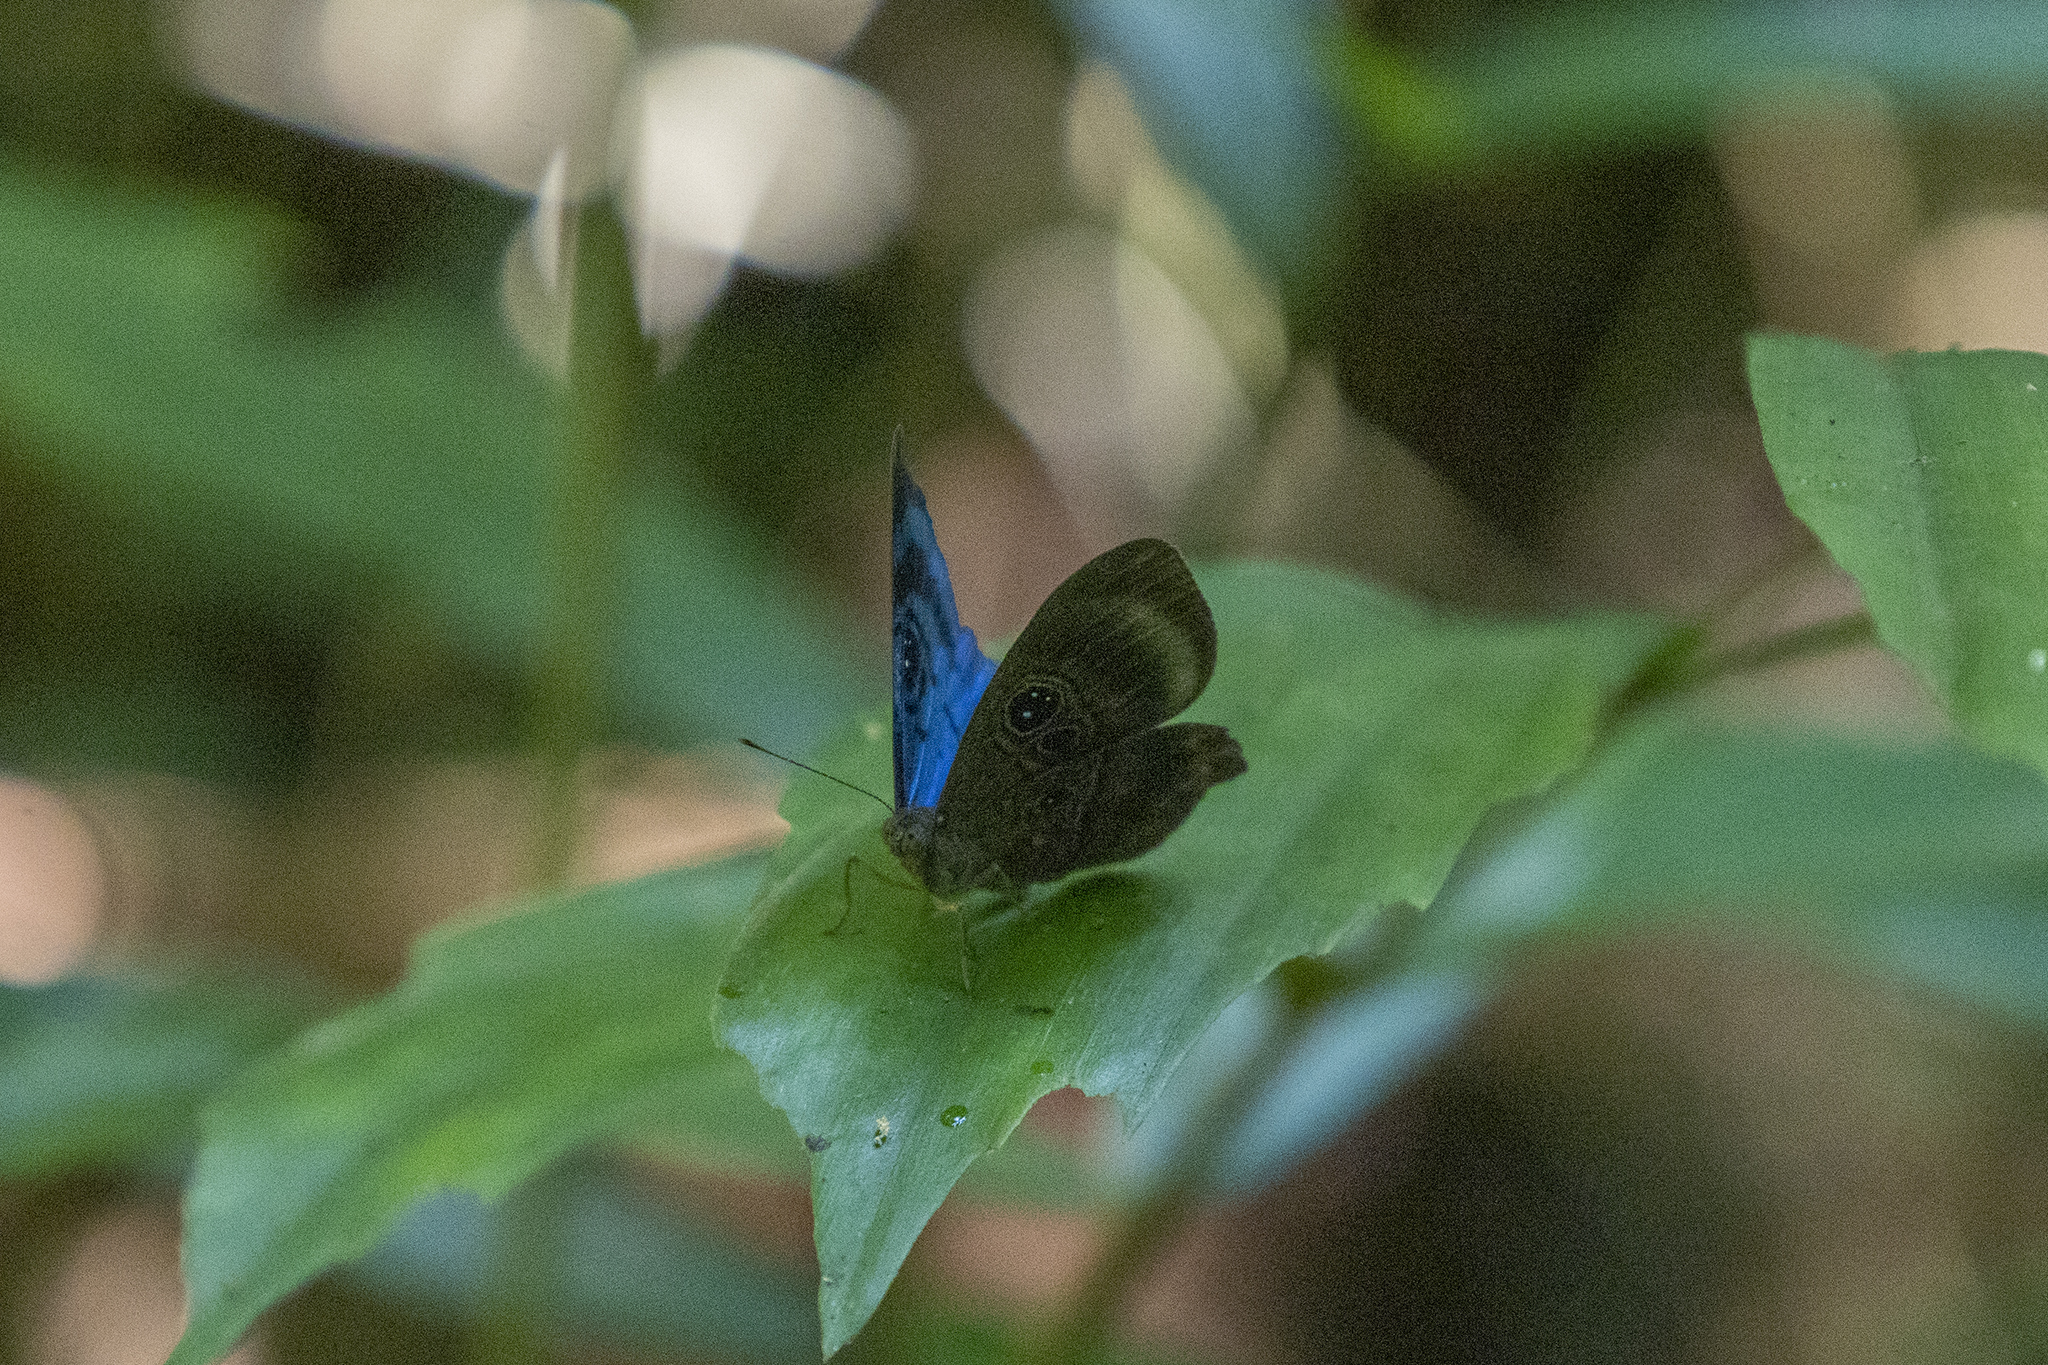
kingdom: Animalia
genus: Mesosemia
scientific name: Mesosemia messeis
